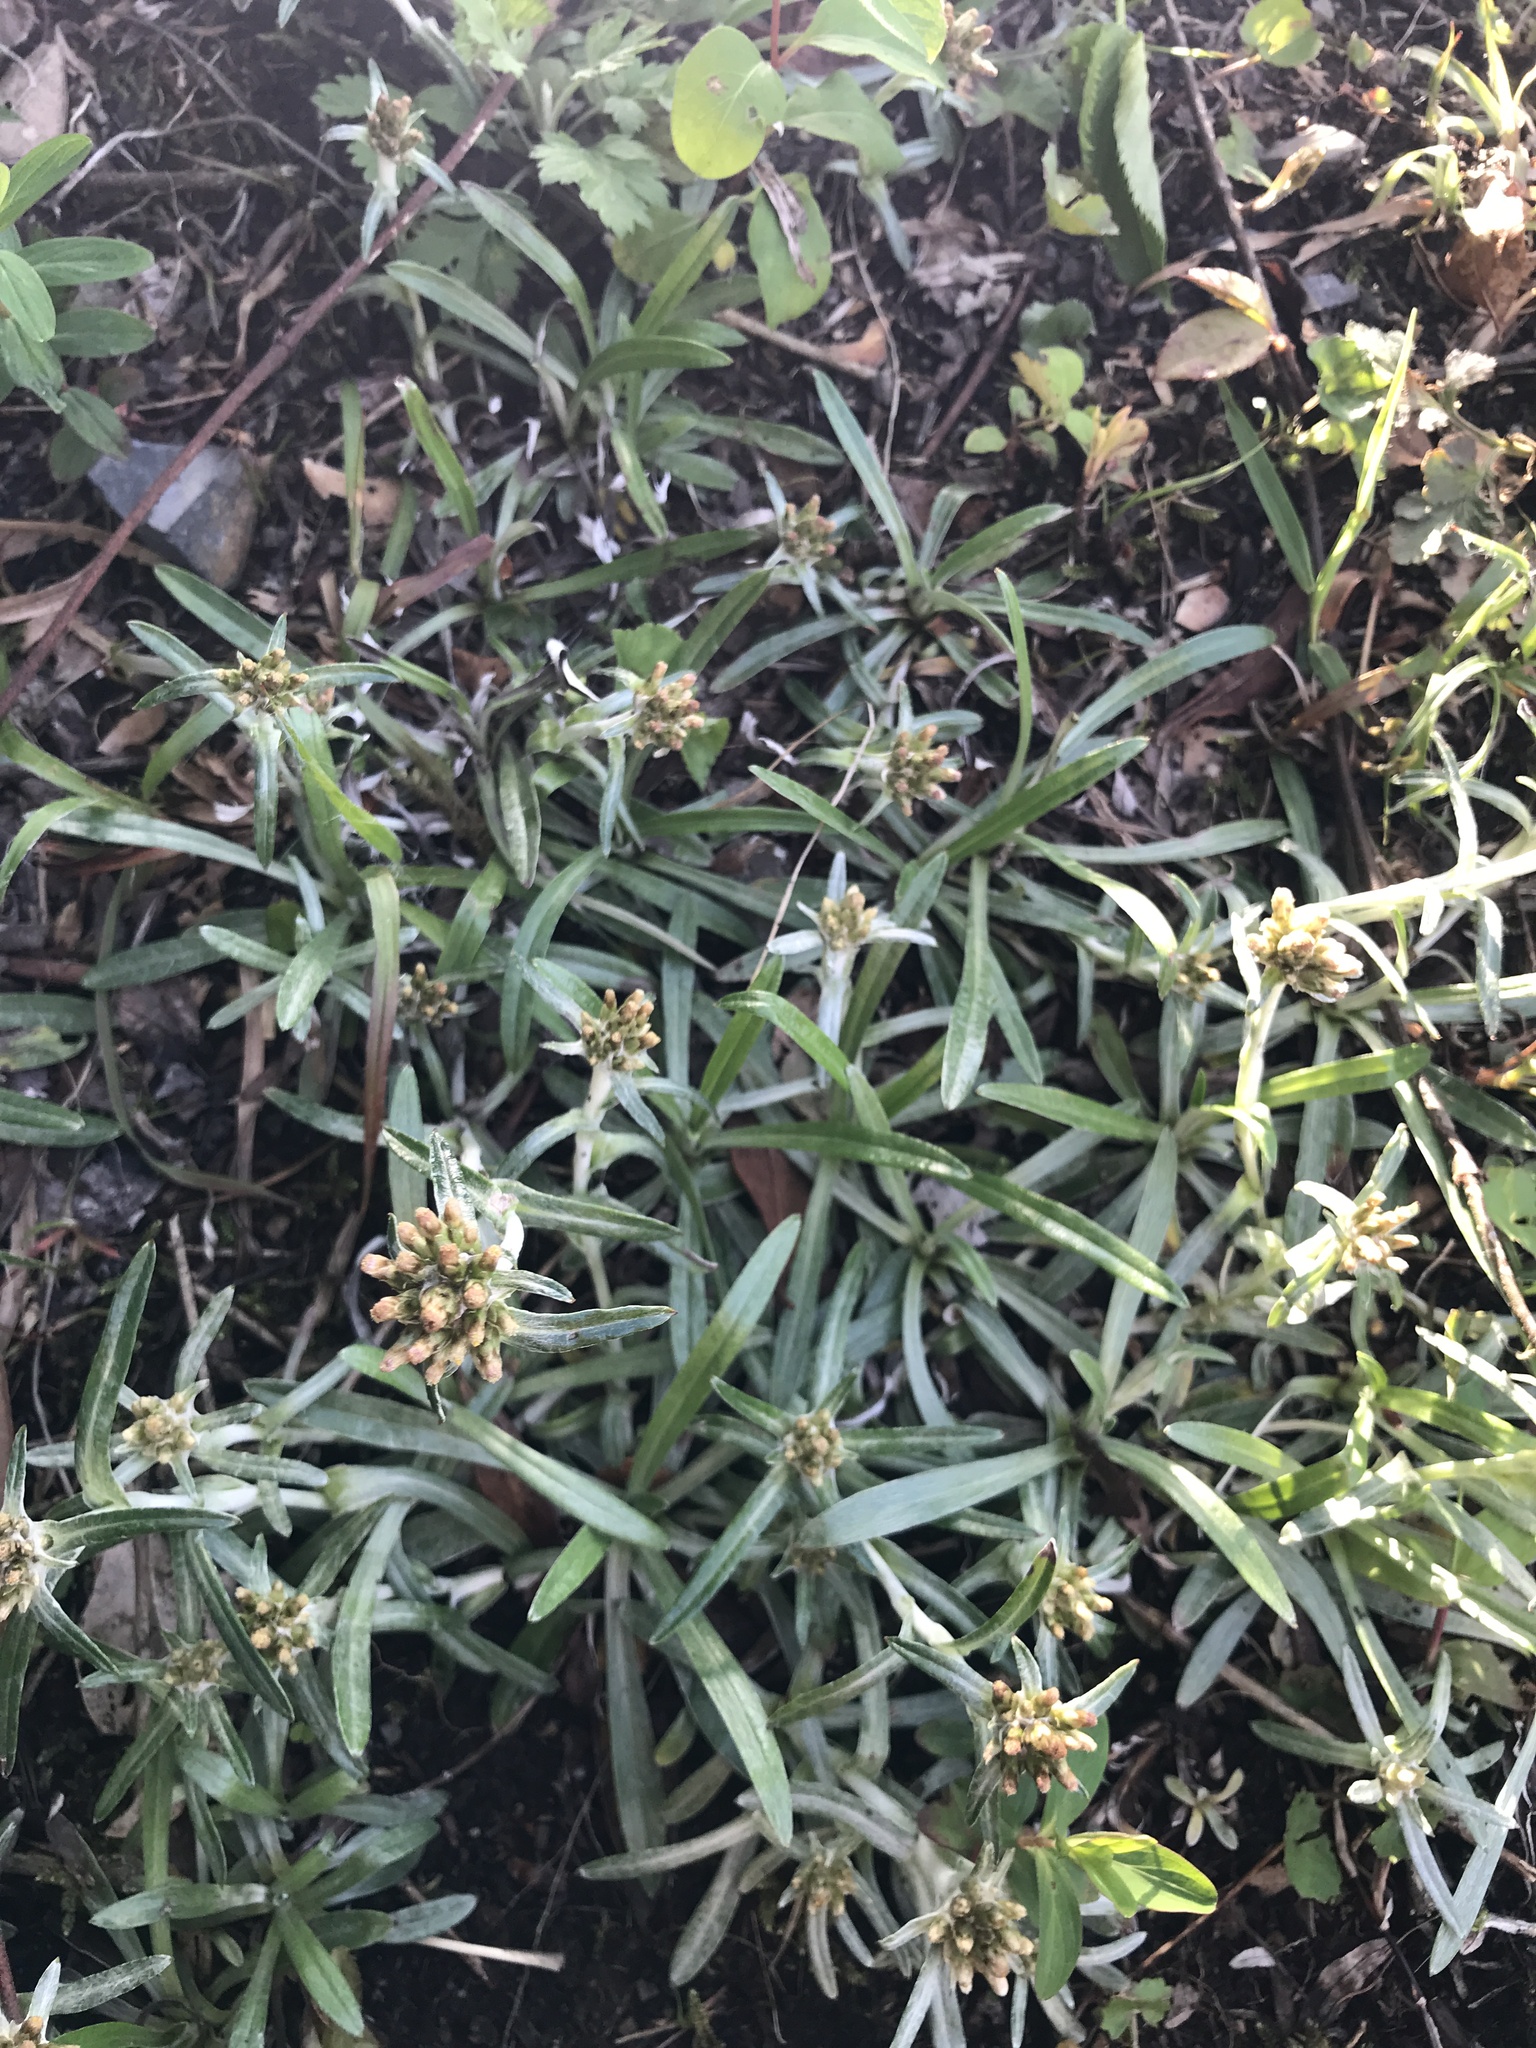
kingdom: Plantae
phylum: Tracheophyta
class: Magnoliopsida
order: Asterales
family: Asteraceae
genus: Euchiton
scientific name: Euchiton japonicus
